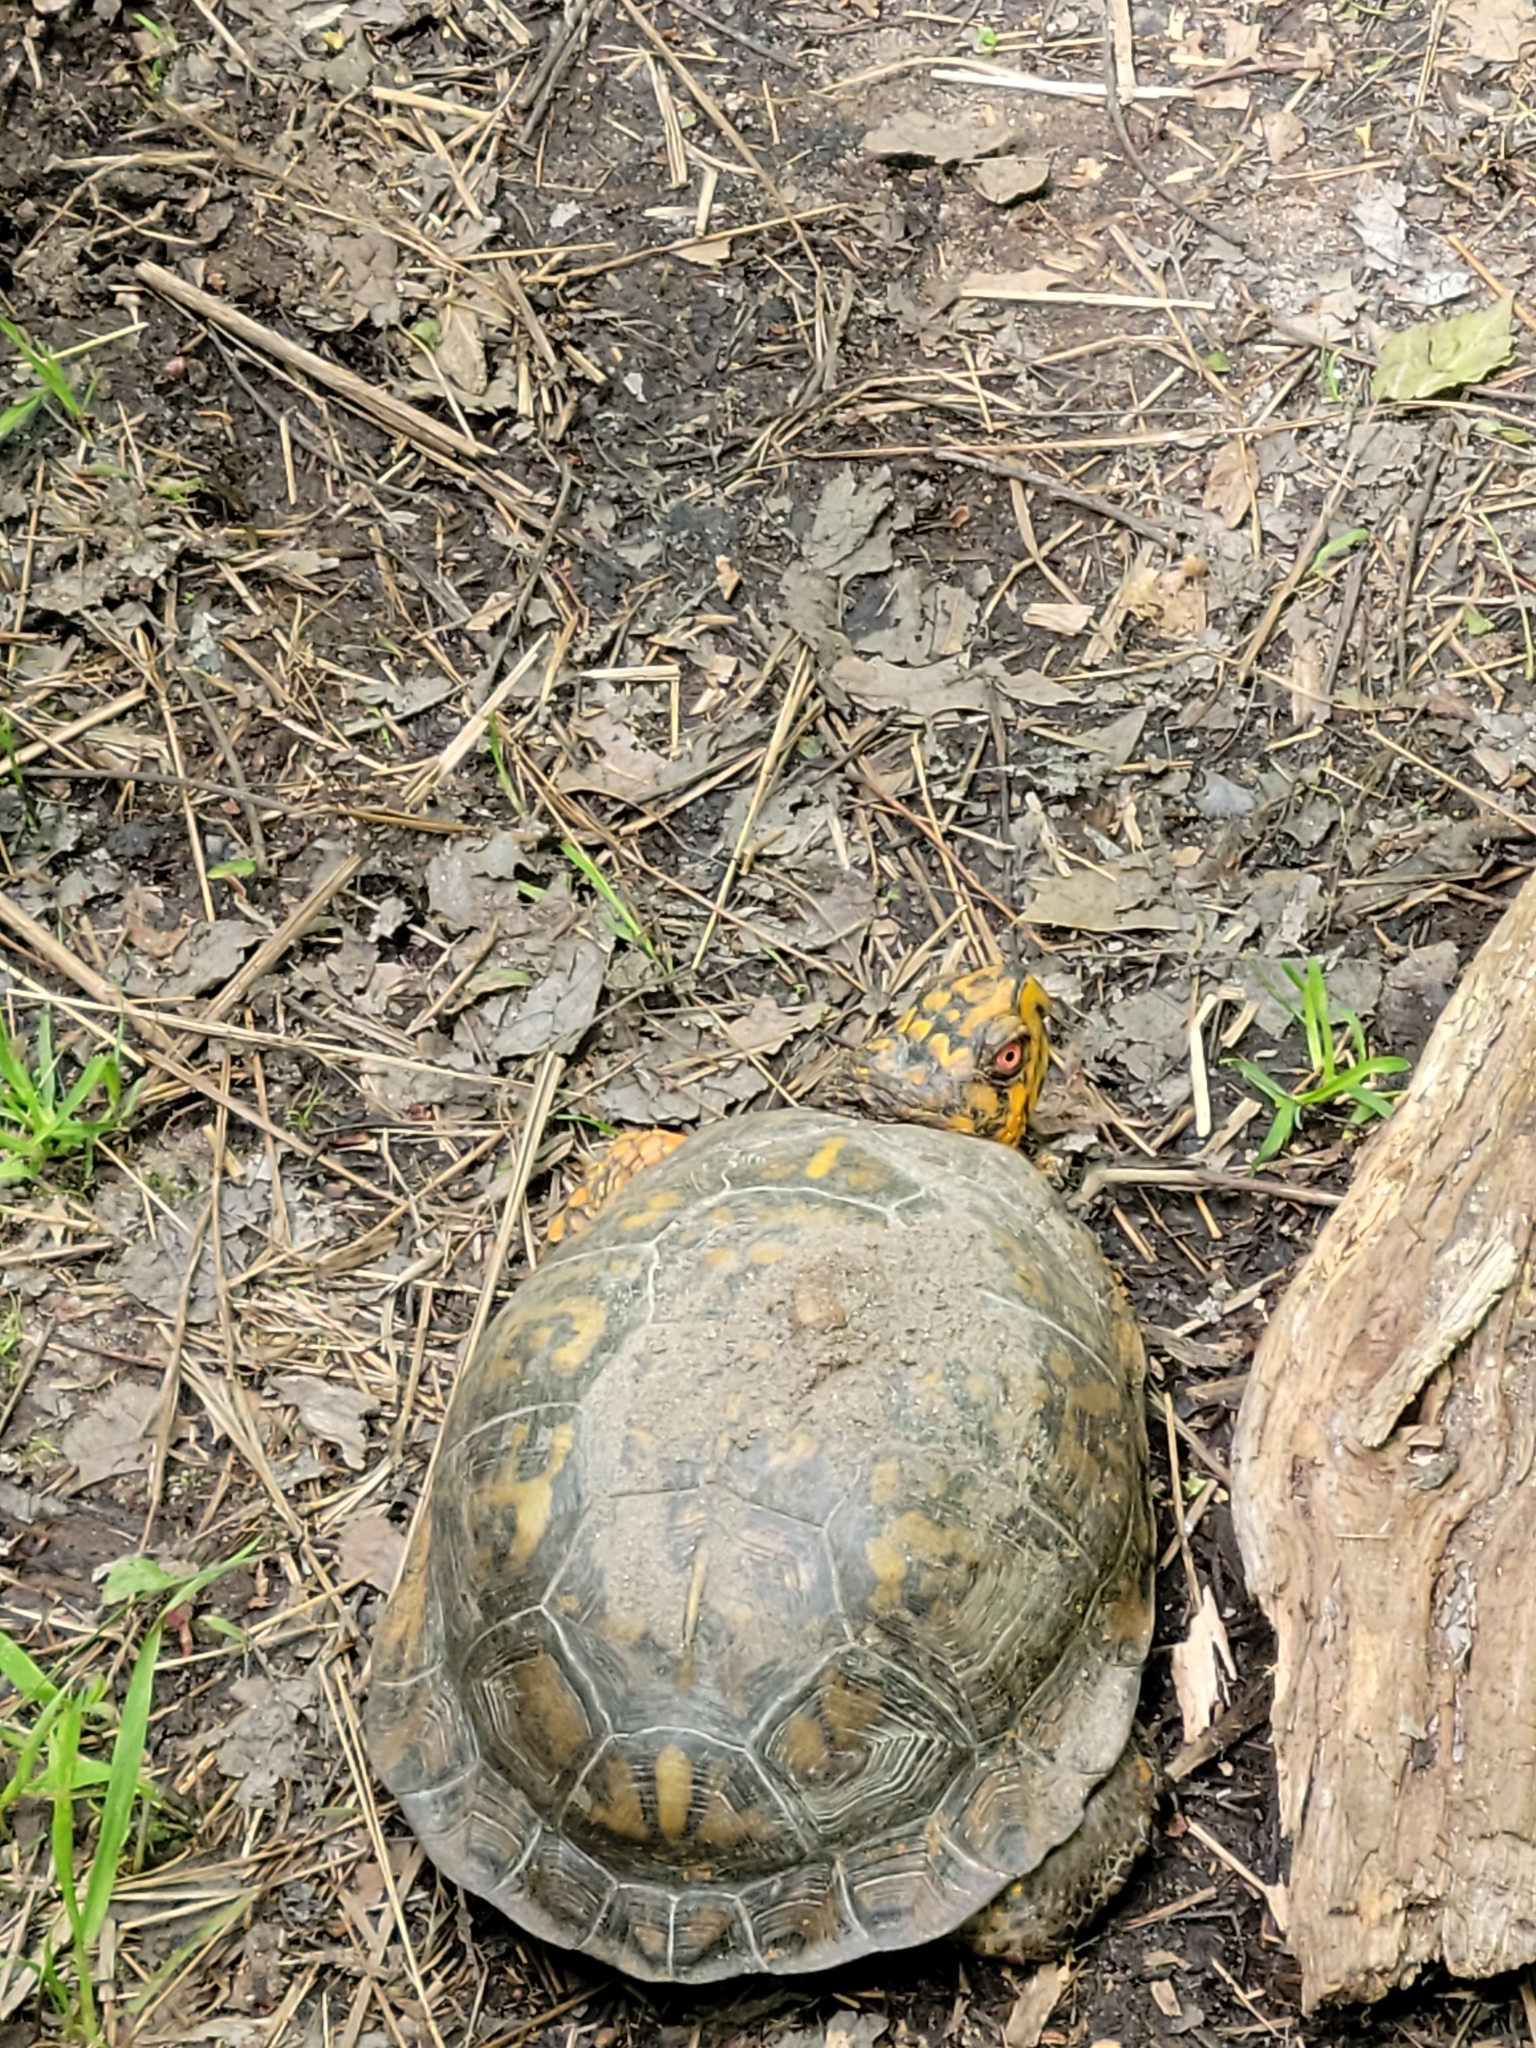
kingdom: Animalia
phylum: Chordata
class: Testudines
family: Emydidae
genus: Terrapene
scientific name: Terrapene carolina
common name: Common box turtle
